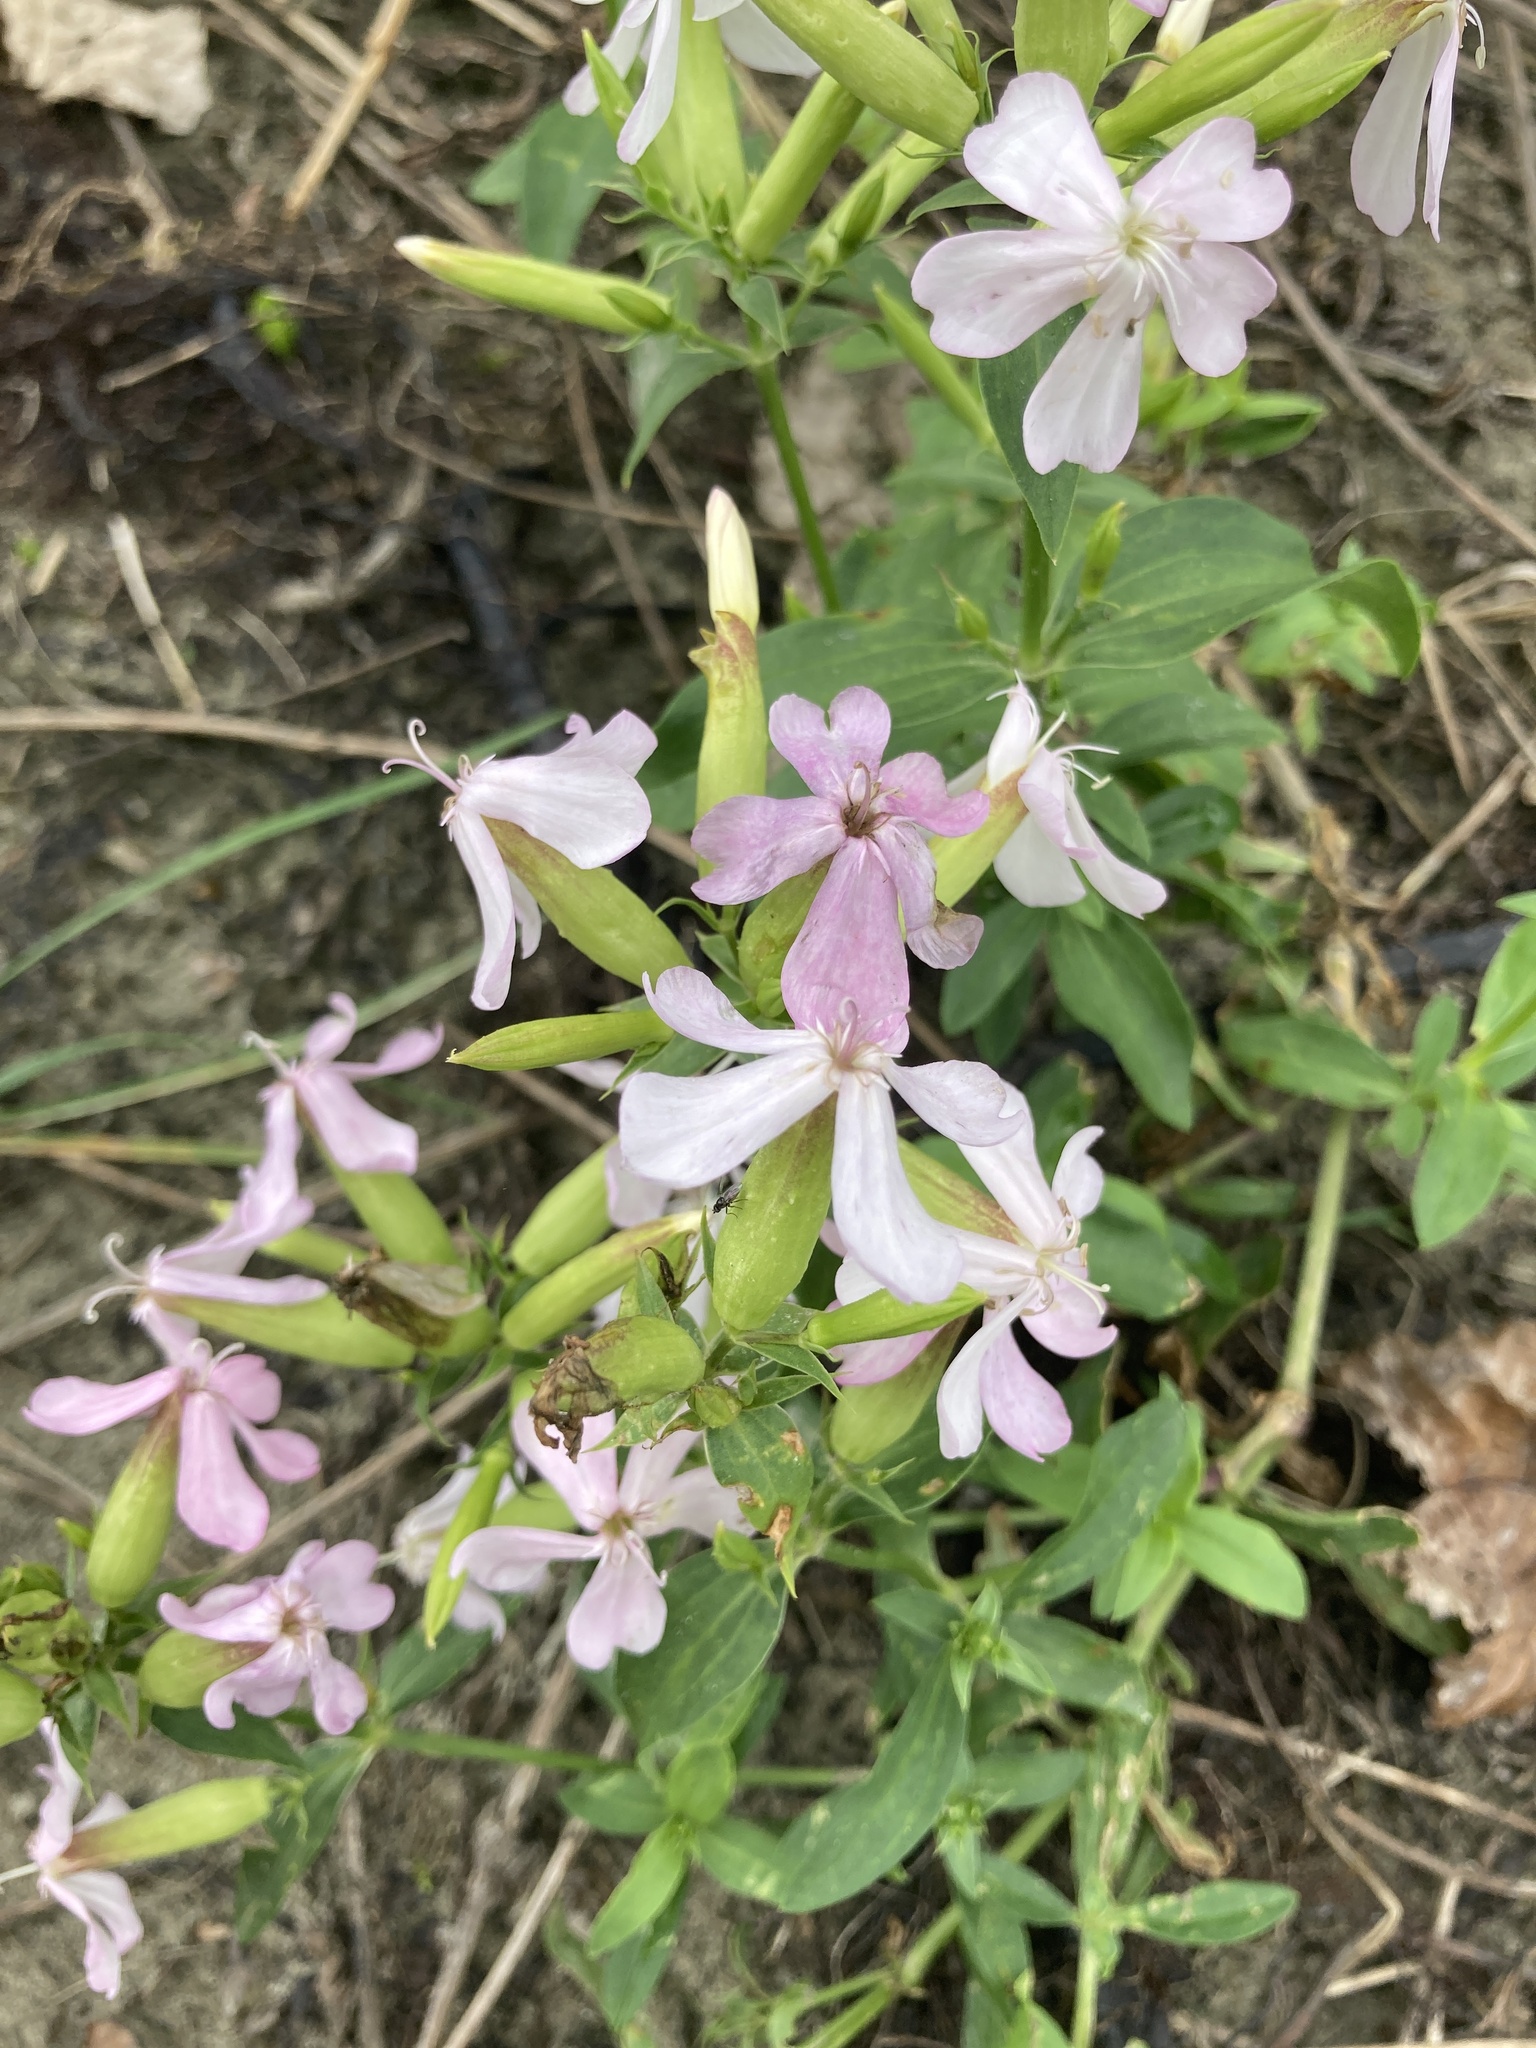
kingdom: Plantae
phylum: Tracheophyta
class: Magnoliopsida
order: Caryophyllales
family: Caryophyllaceae
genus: Saponaria
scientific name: Saponaria officinalis
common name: Soapwort
